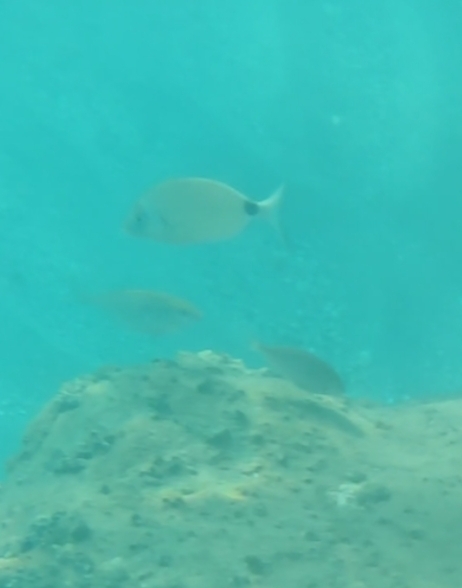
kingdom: Animalia
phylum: Chordata
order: Perciformes
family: Sparidae
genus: Diplodus
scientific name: Diplodus sargus
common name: White seabream
